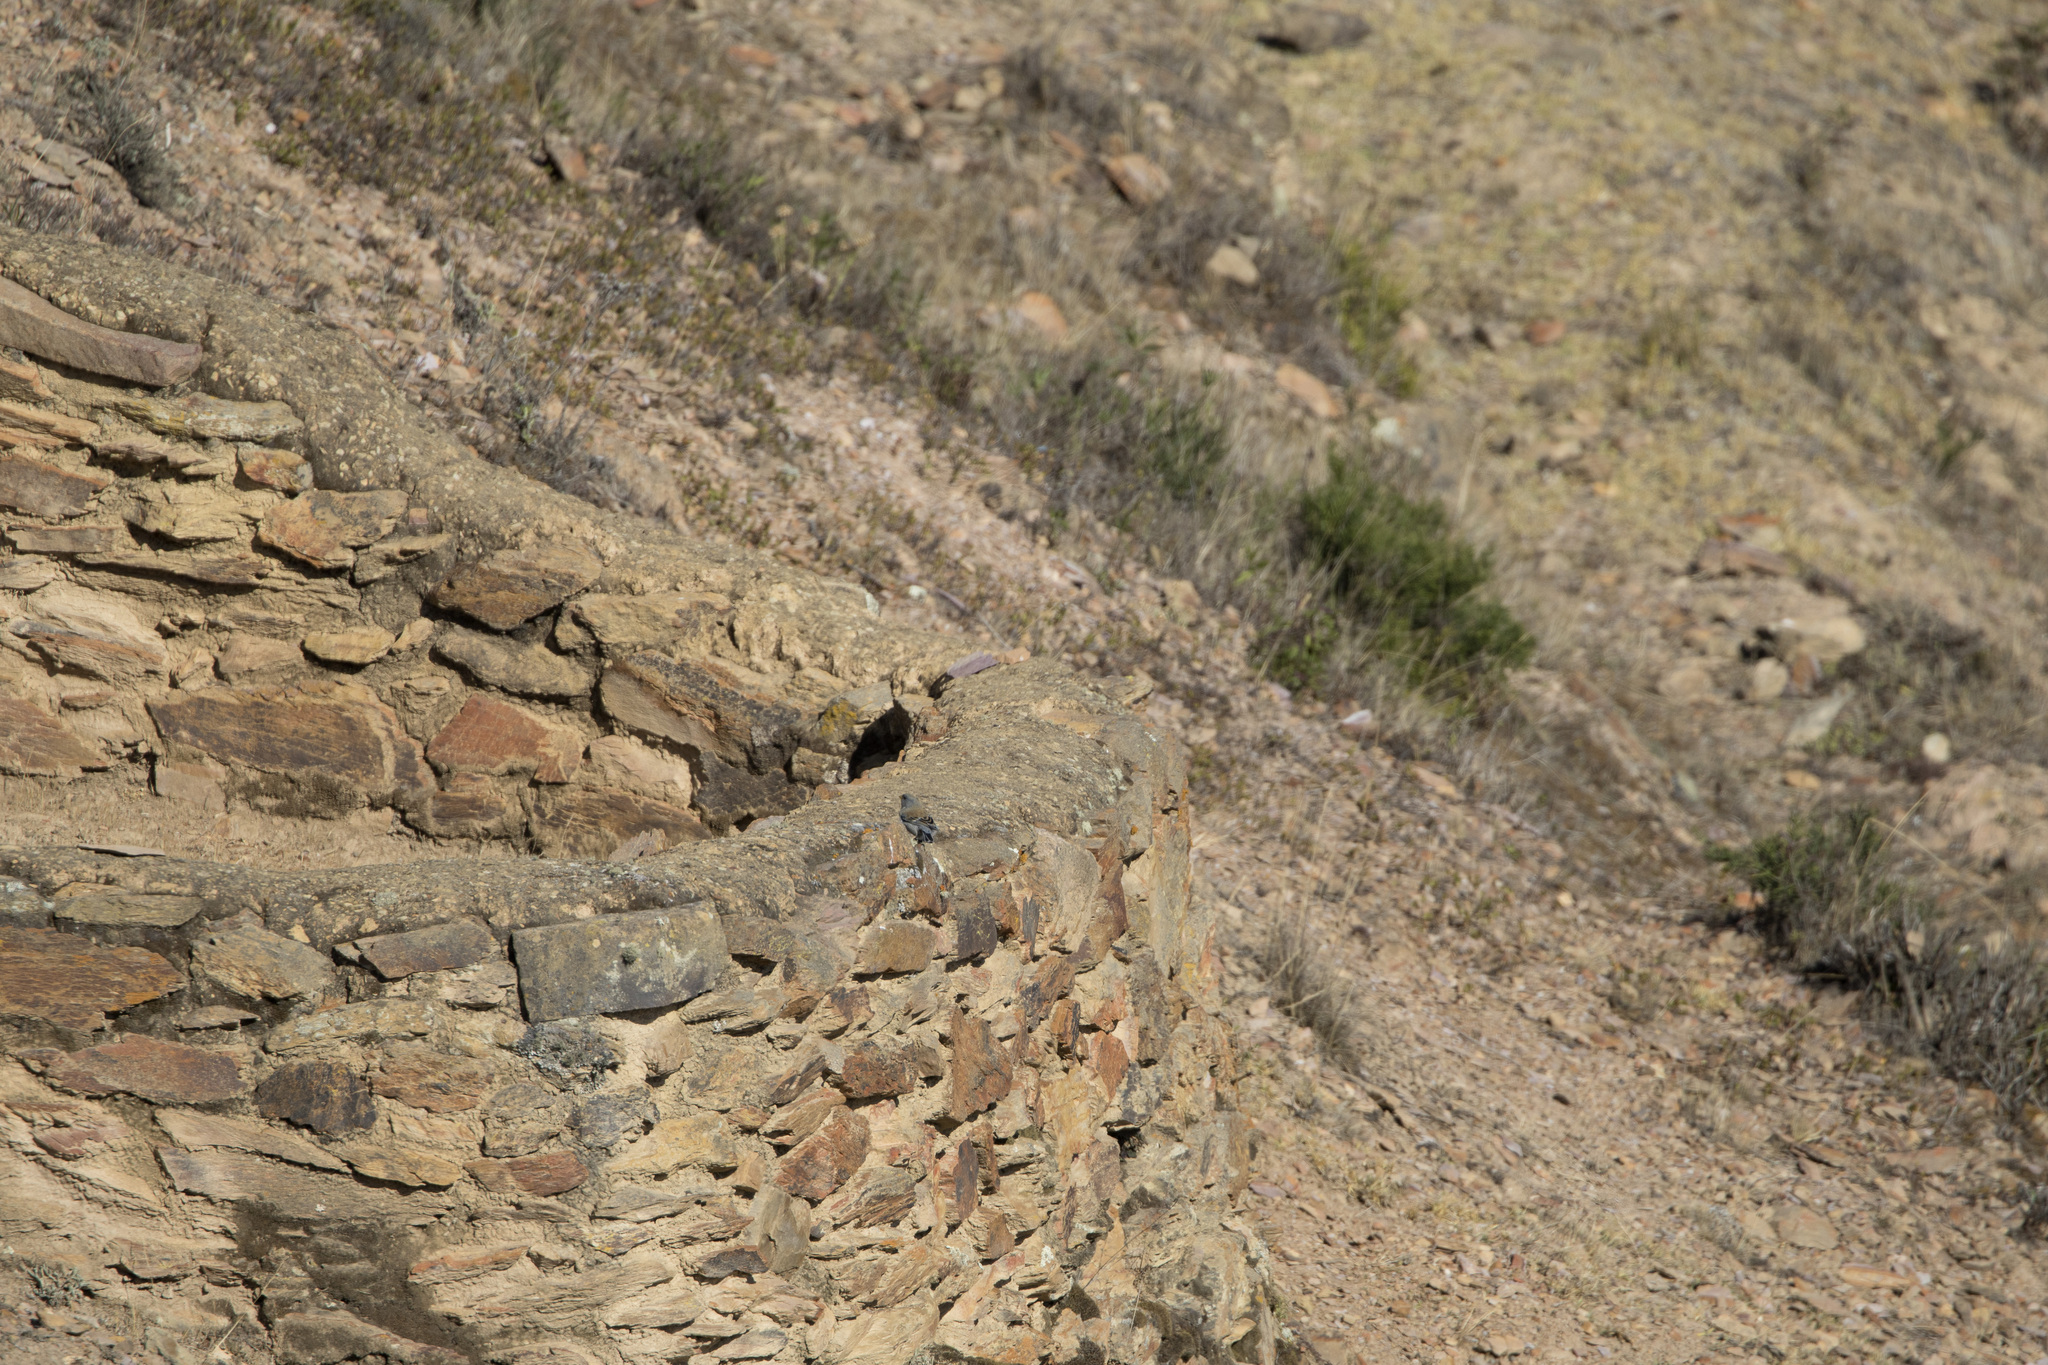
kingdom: Animalia
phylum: Chordata
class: Aves
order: Passeriformes
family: Thraupidae
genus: Catamenia
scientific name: Catamenia analis
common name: Band-tailed seedeater
